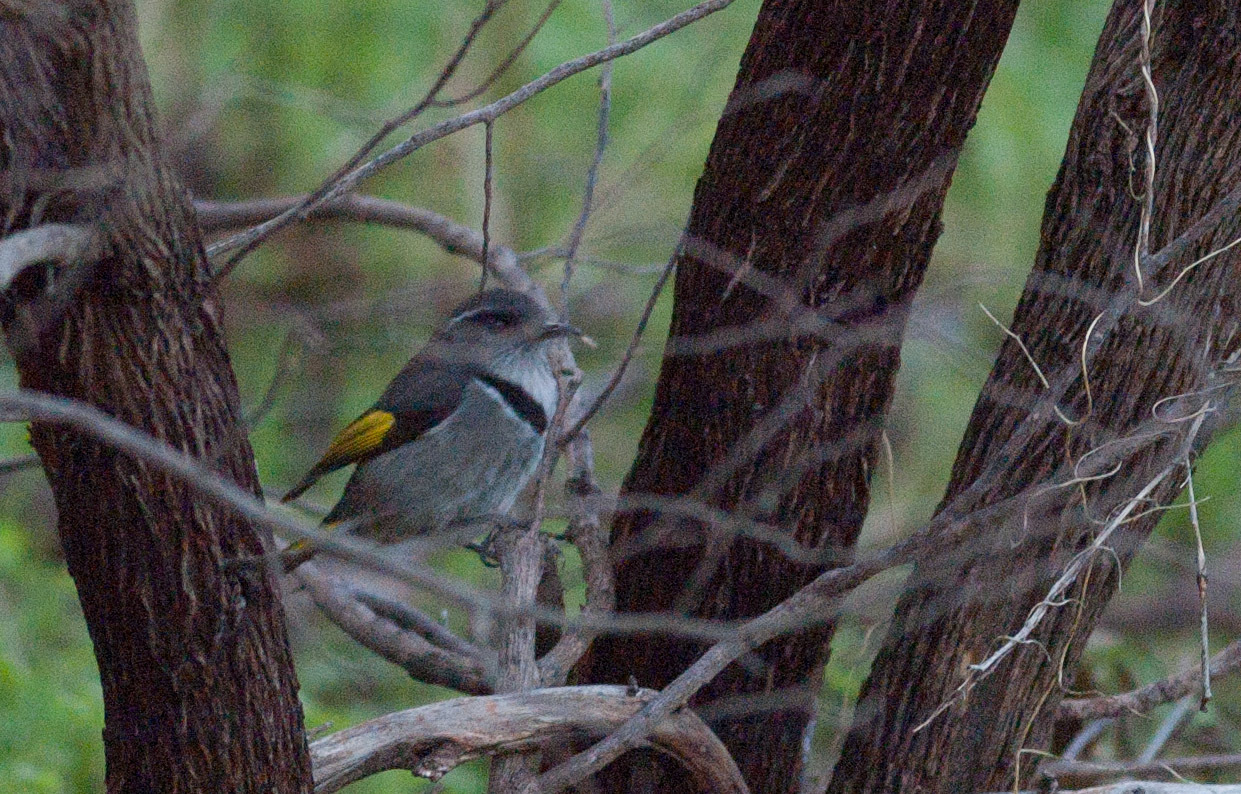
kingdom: Animalia
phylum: Chordata
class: Aves
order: Passeriformes
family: Meliphagidae
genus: Phylidonyris
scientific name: Phylidonyris pyrrhopterus
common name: Crescent honeyeater
